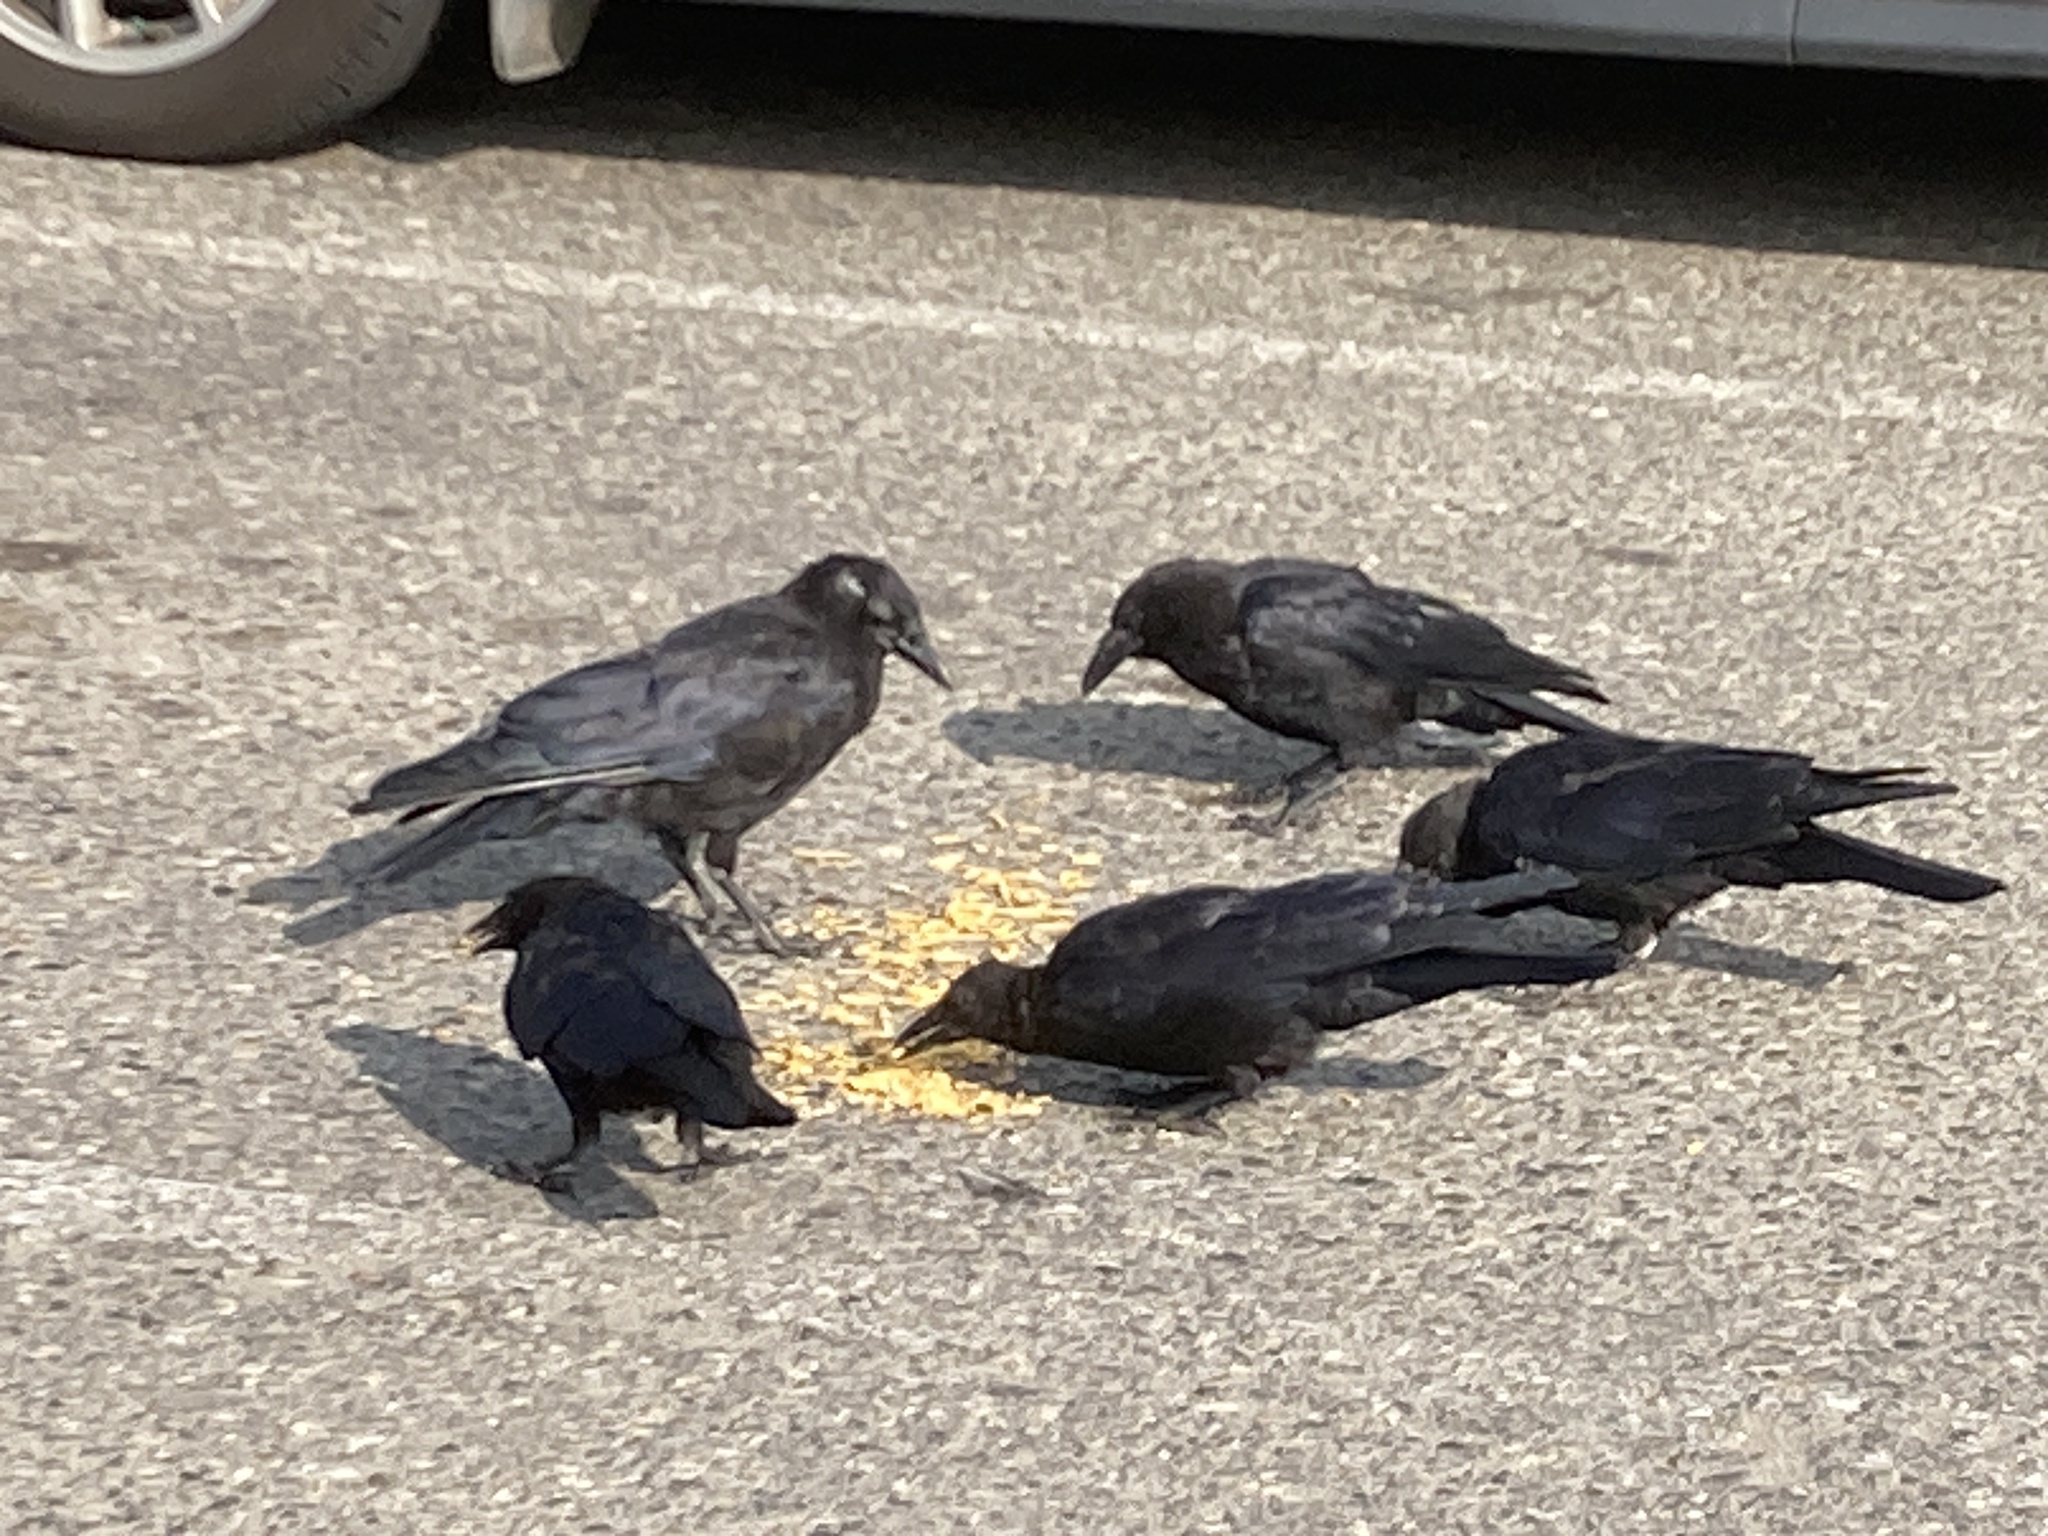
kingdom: Animalia
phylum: Chordata
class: Aves
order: Passeriformes
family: Corvidae
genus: Corvus
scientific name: Corvus brachyrhynchos
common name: American crow
